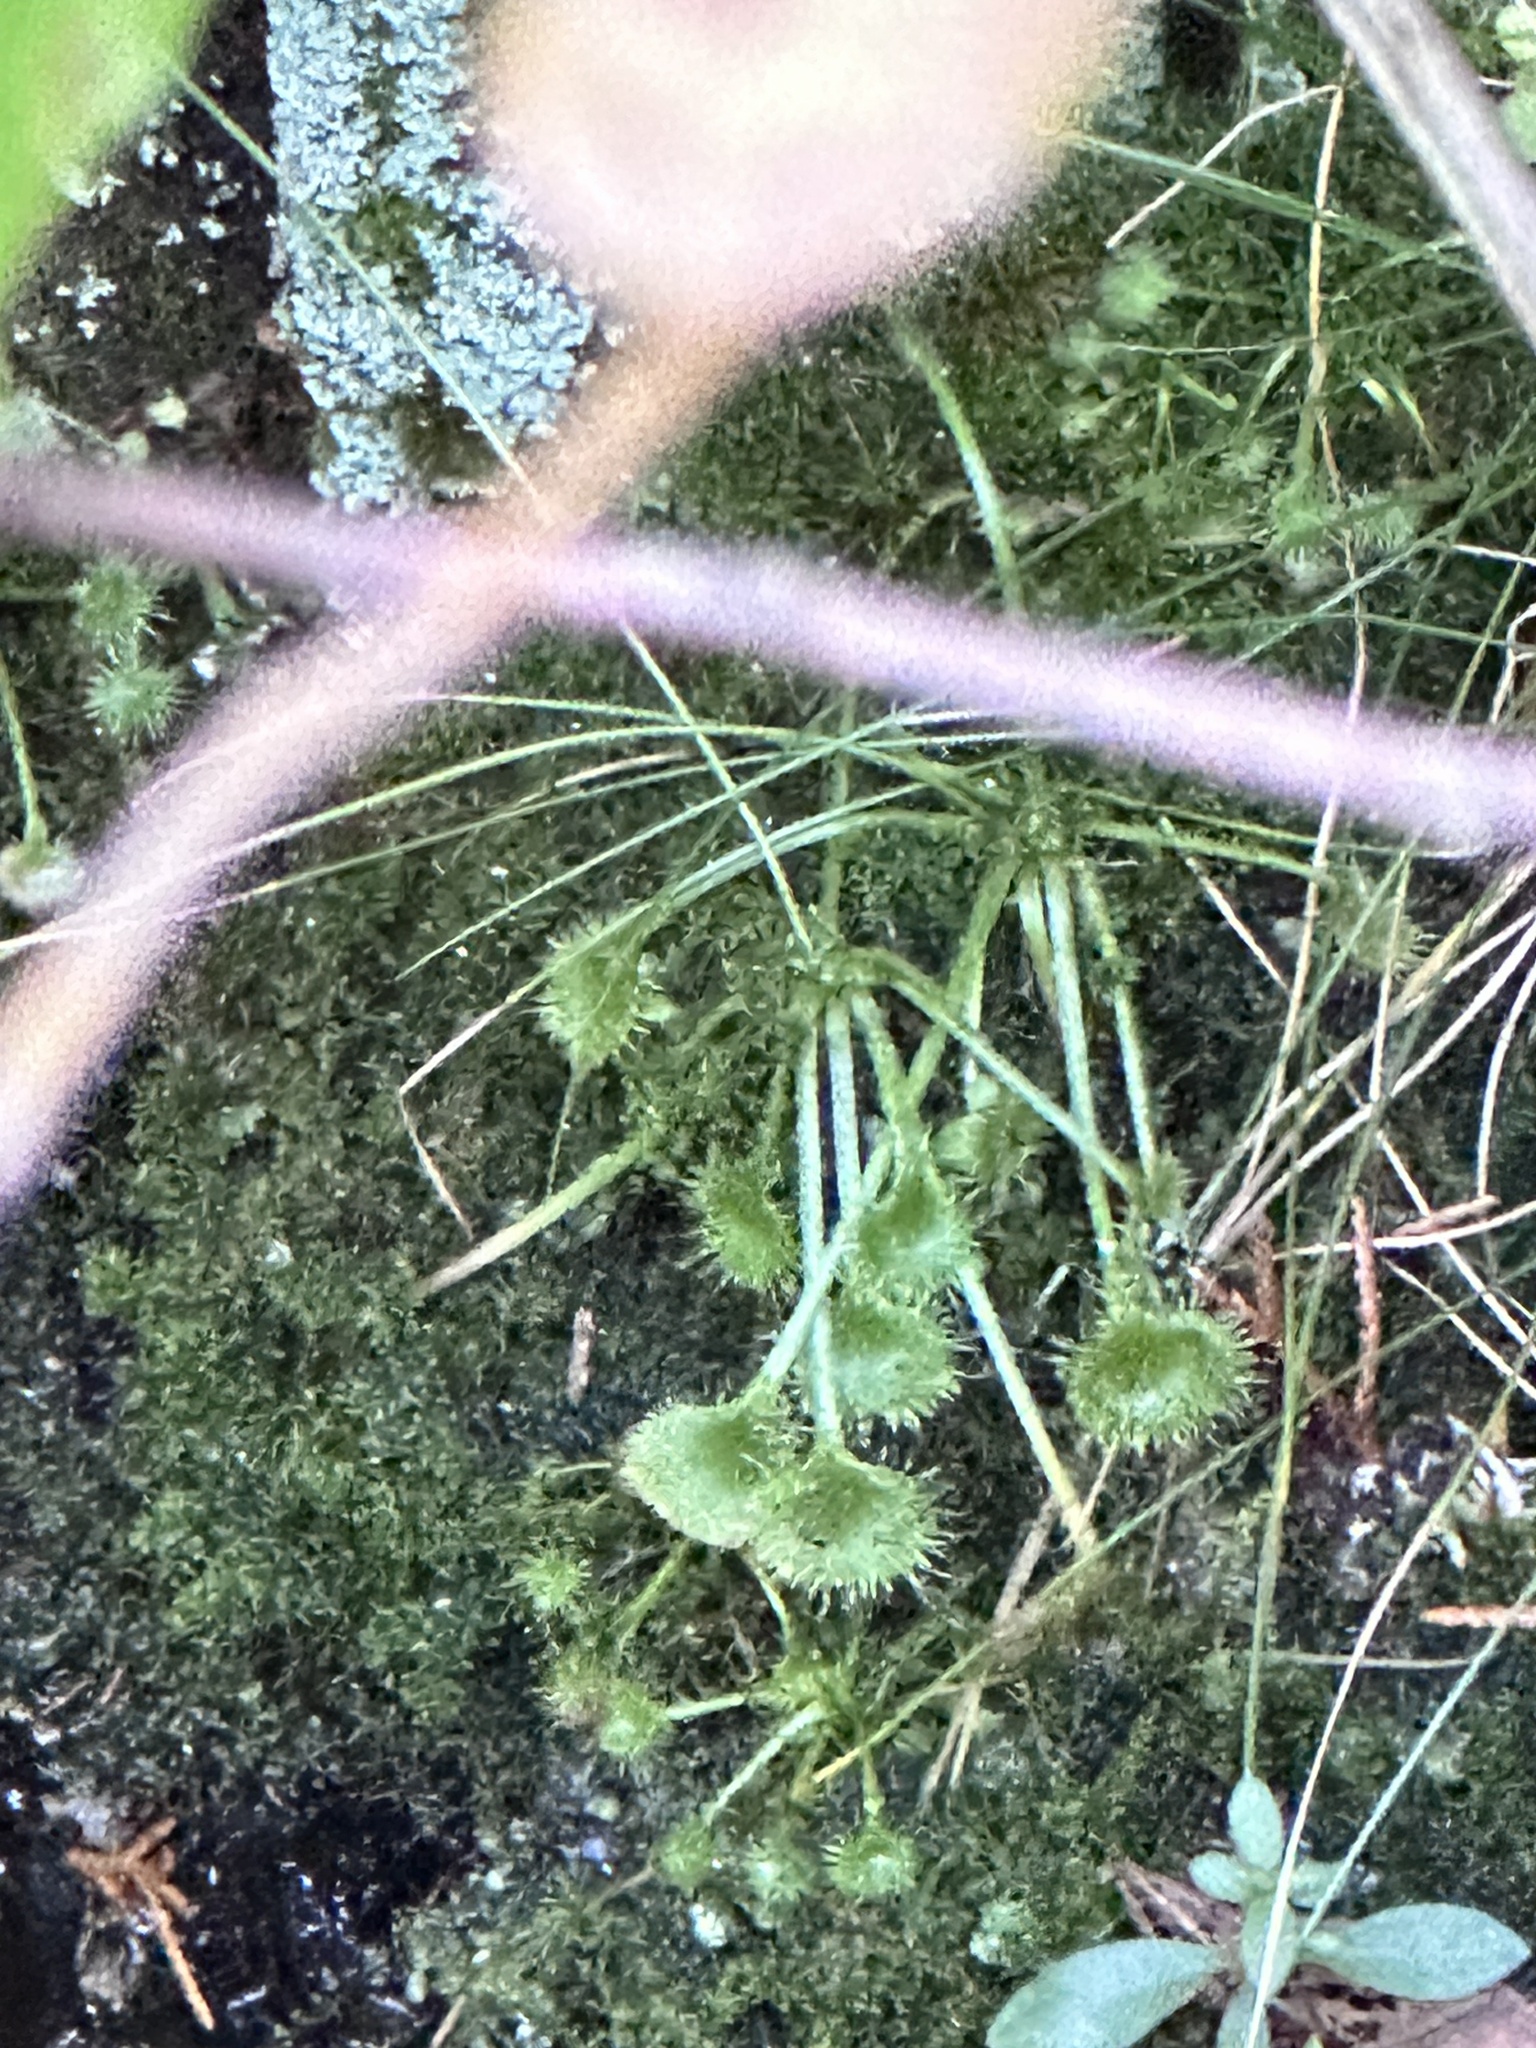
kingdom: Plantae
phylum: Tracheophyta
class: Magnoliopsida
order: Caryophyllales
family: Droseraceae
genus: Drosera
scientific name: Drosera rotundifolia
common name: Round-leaved sundew
